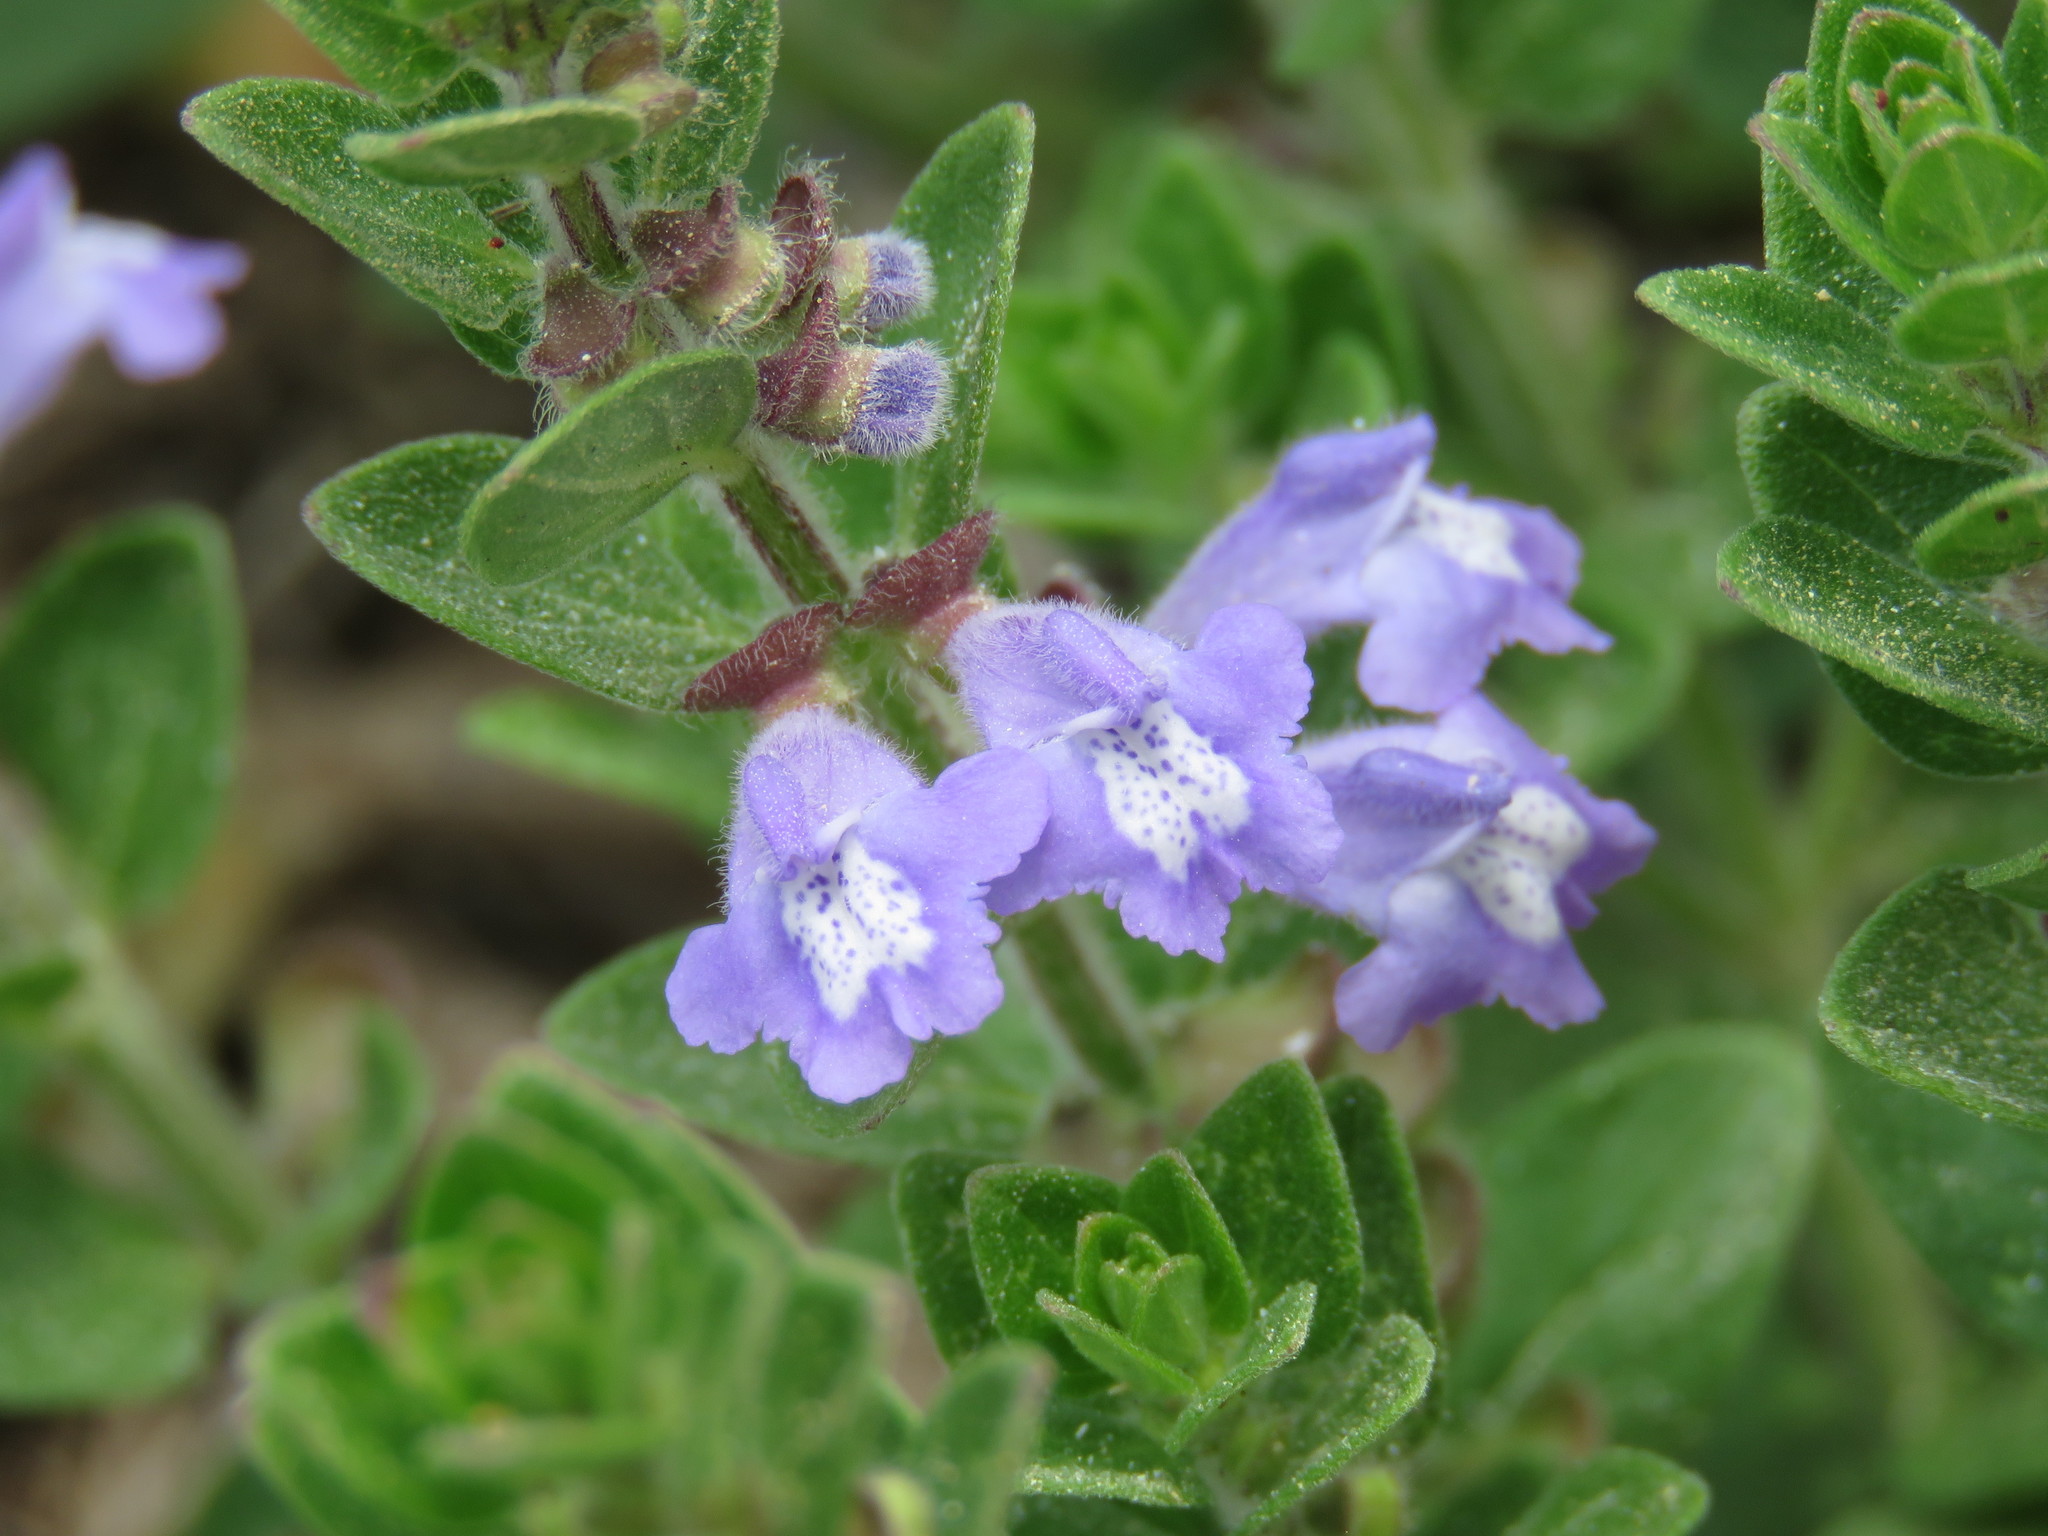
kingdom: Plantae
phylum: Tracheophyta
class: Magnoliopsida
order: Lamiales
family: Lamiaceae
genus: Scutellaria
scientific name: Scutellaria parvula
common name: Little scullcap
